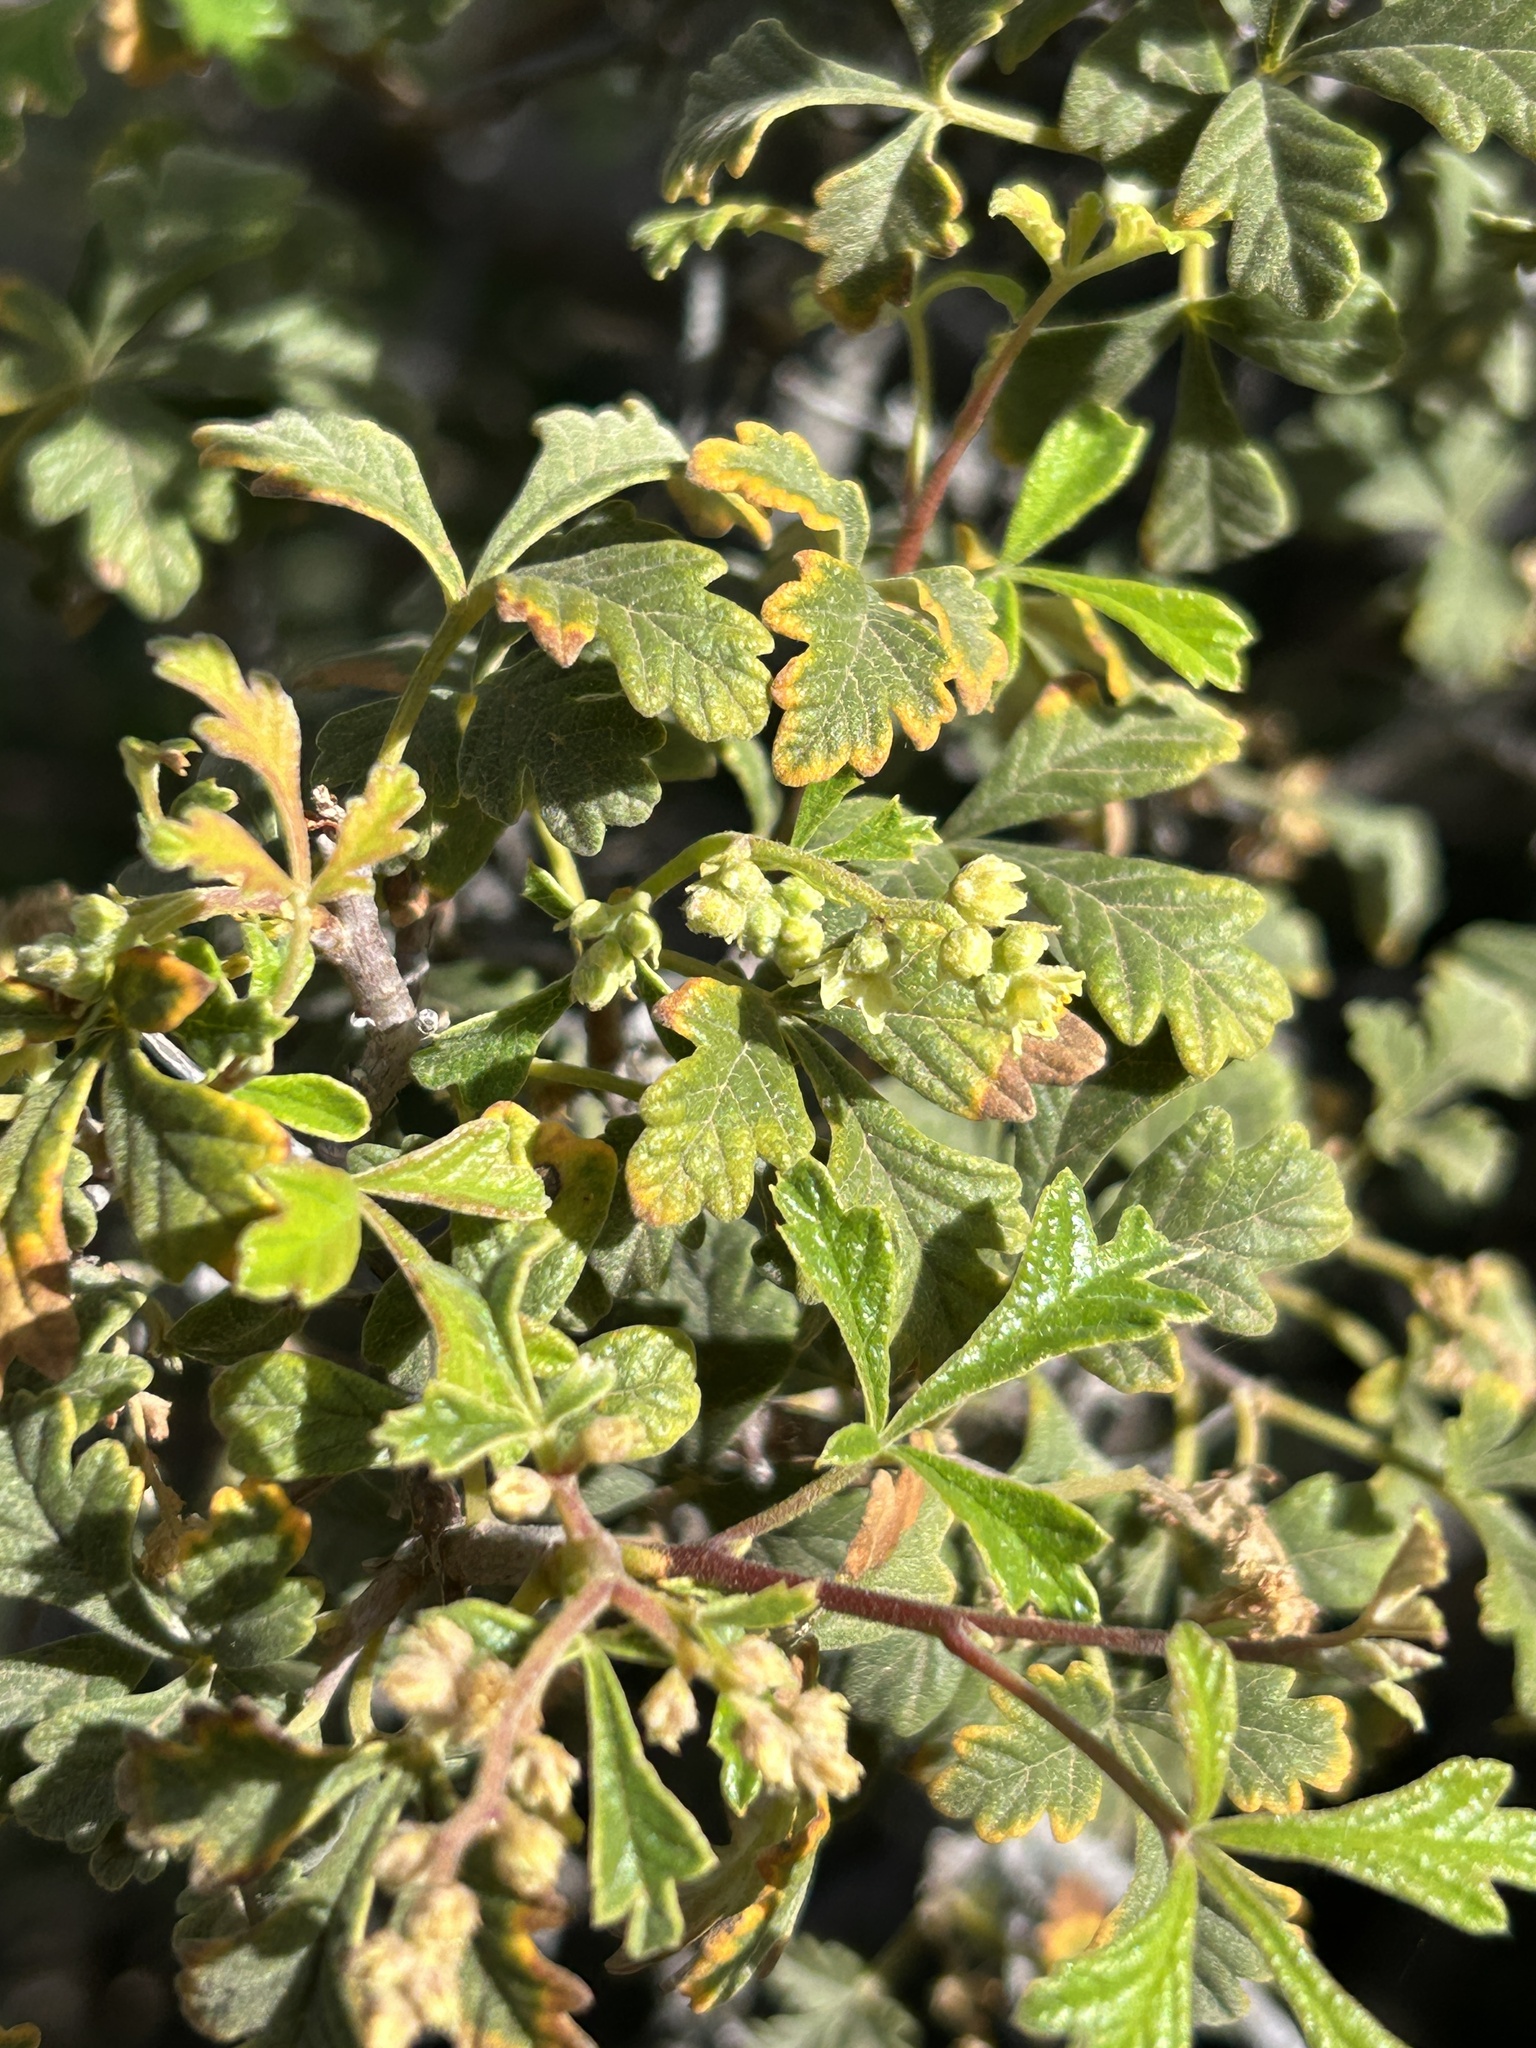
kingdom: Plantae
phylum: Tracheophyta
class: Magnoliopsida
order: Sapindales
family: Anacardiaceae
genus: Searsia
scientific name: Searsia incisa
